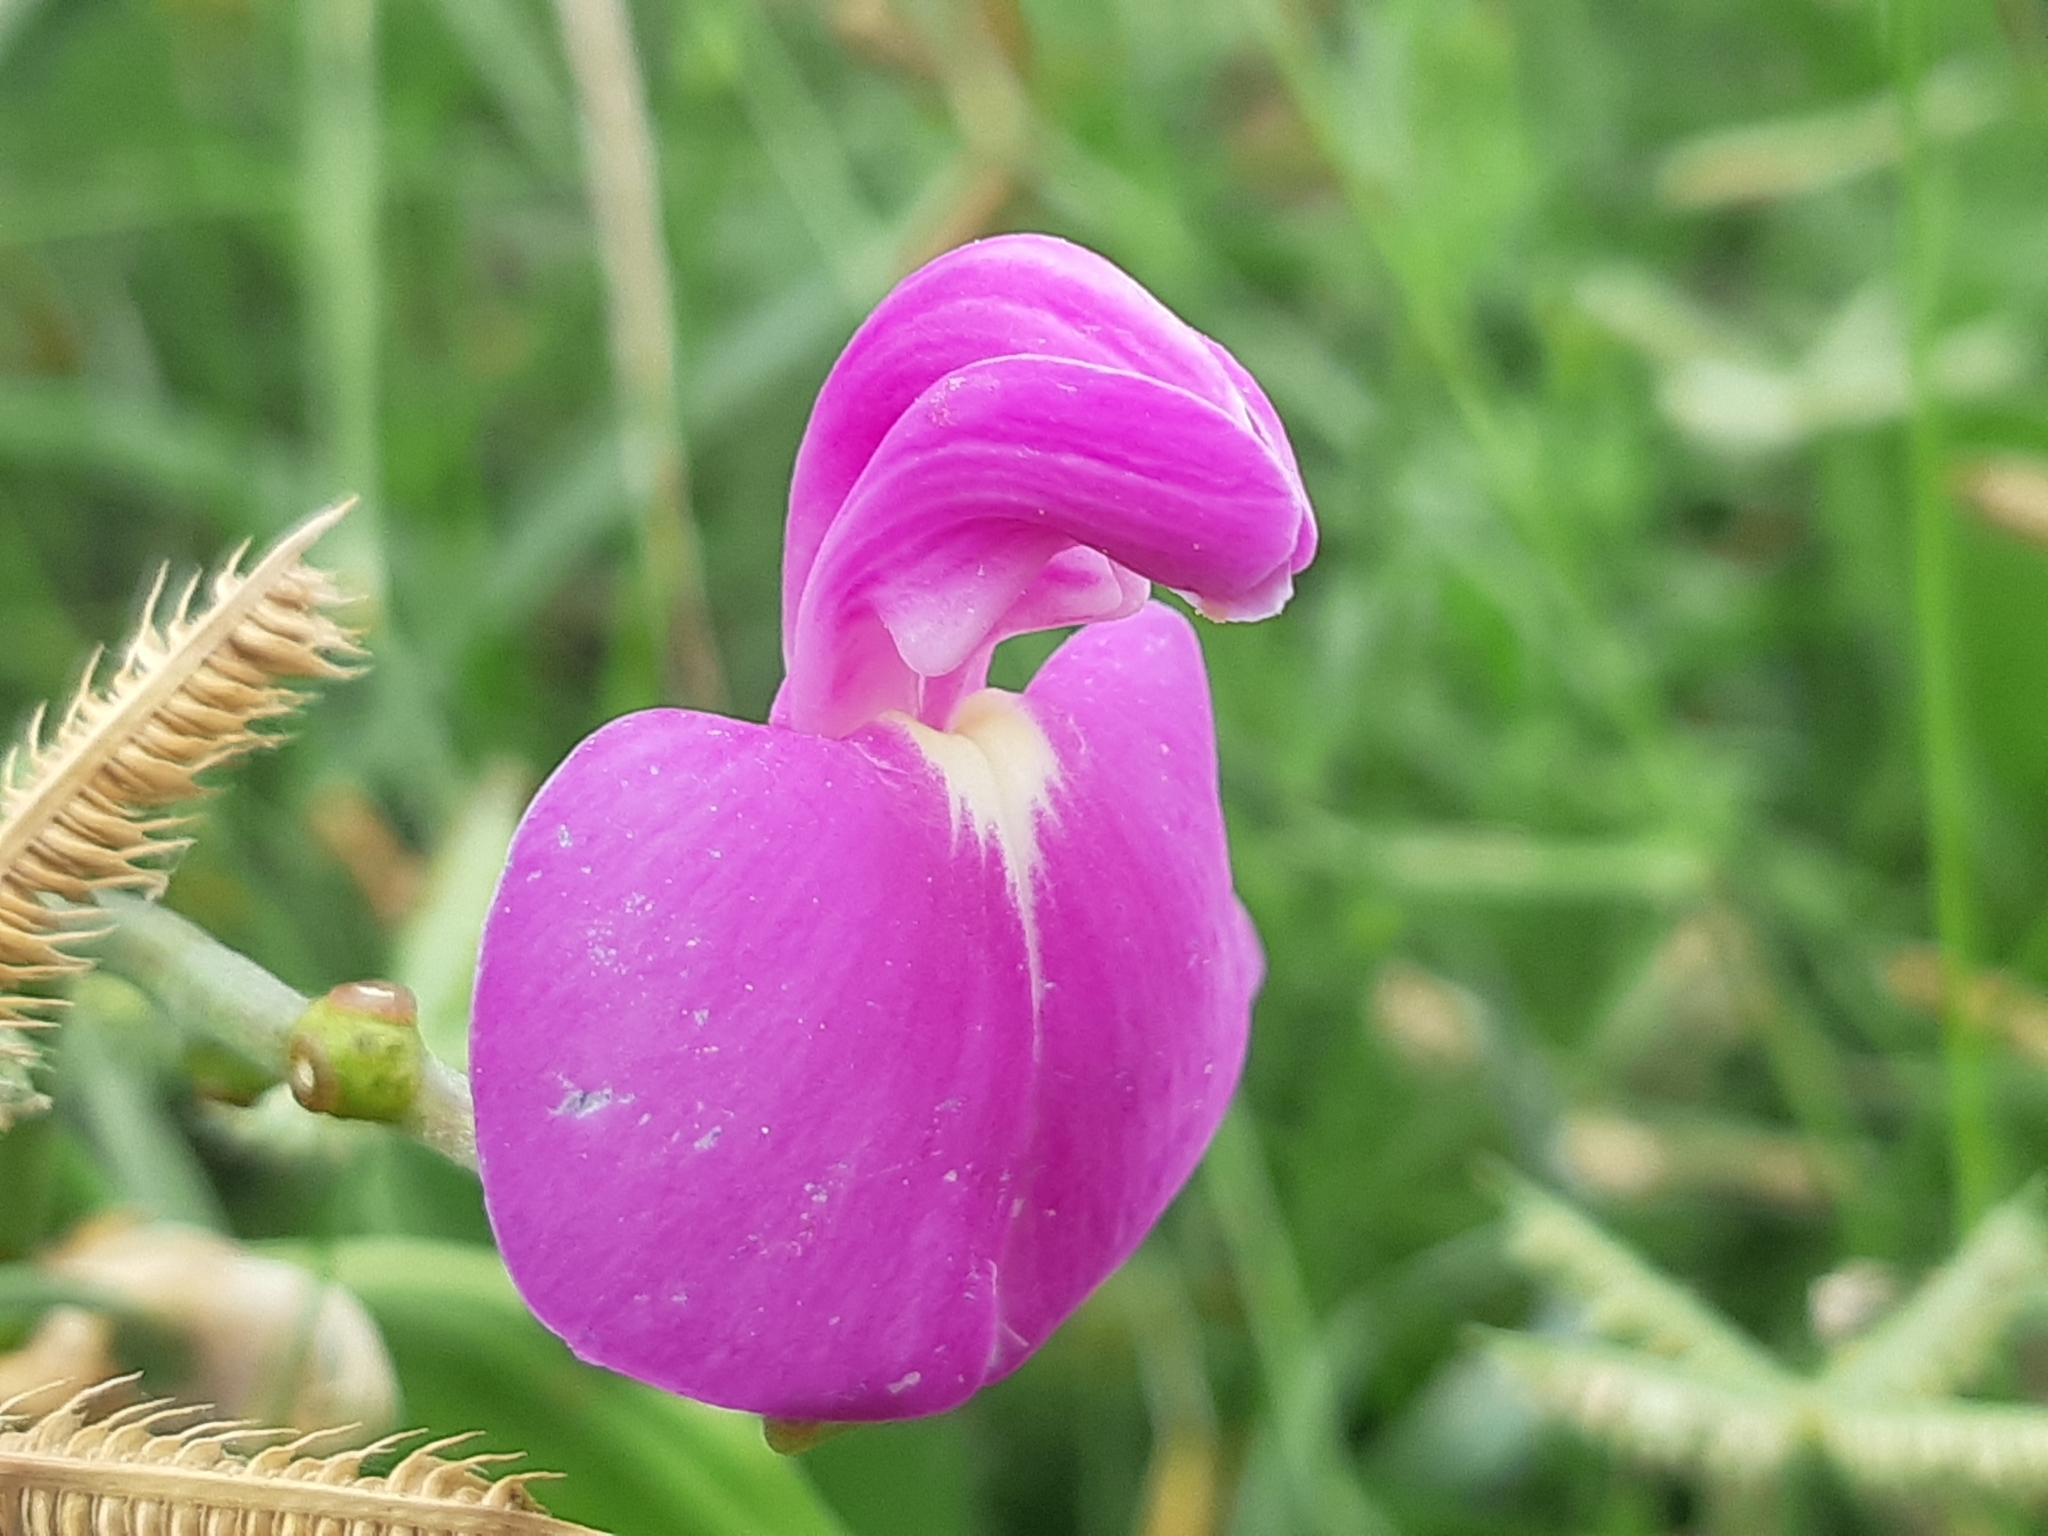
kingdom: Plantae
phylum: Tracheophyta
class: Magnoliopsida
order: Fabales
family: Fabaceae
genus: Canavalia
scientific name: Canavalia rosea
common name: Beach-bean
